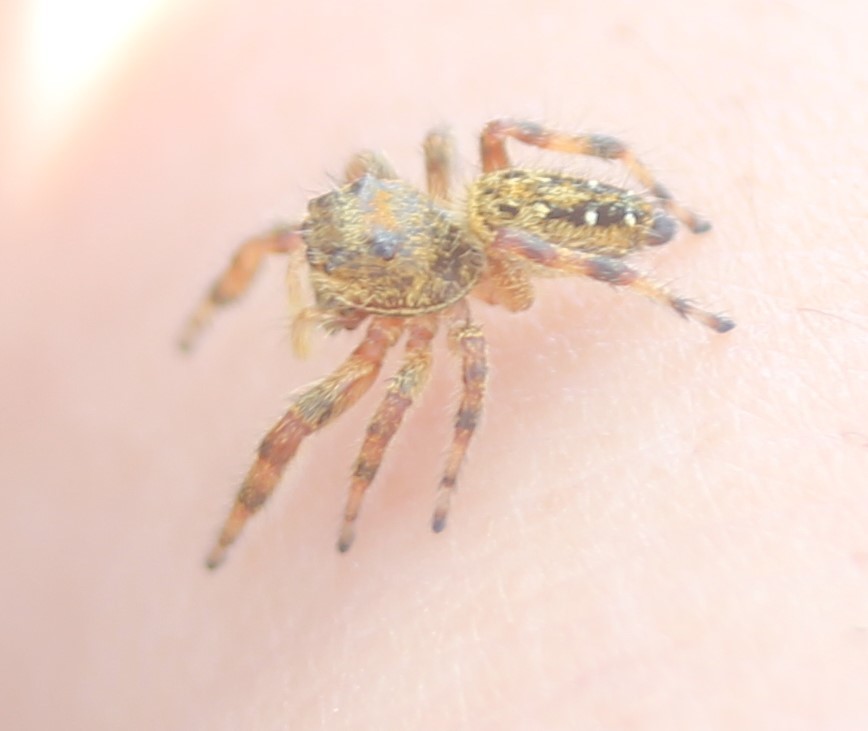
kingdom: Animalia
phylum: Arthropoda
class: Arachnida
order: Araneae
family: Salticidae
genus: Phidippus
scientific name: Phidippus clarus
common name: Brilliant jumping spider
